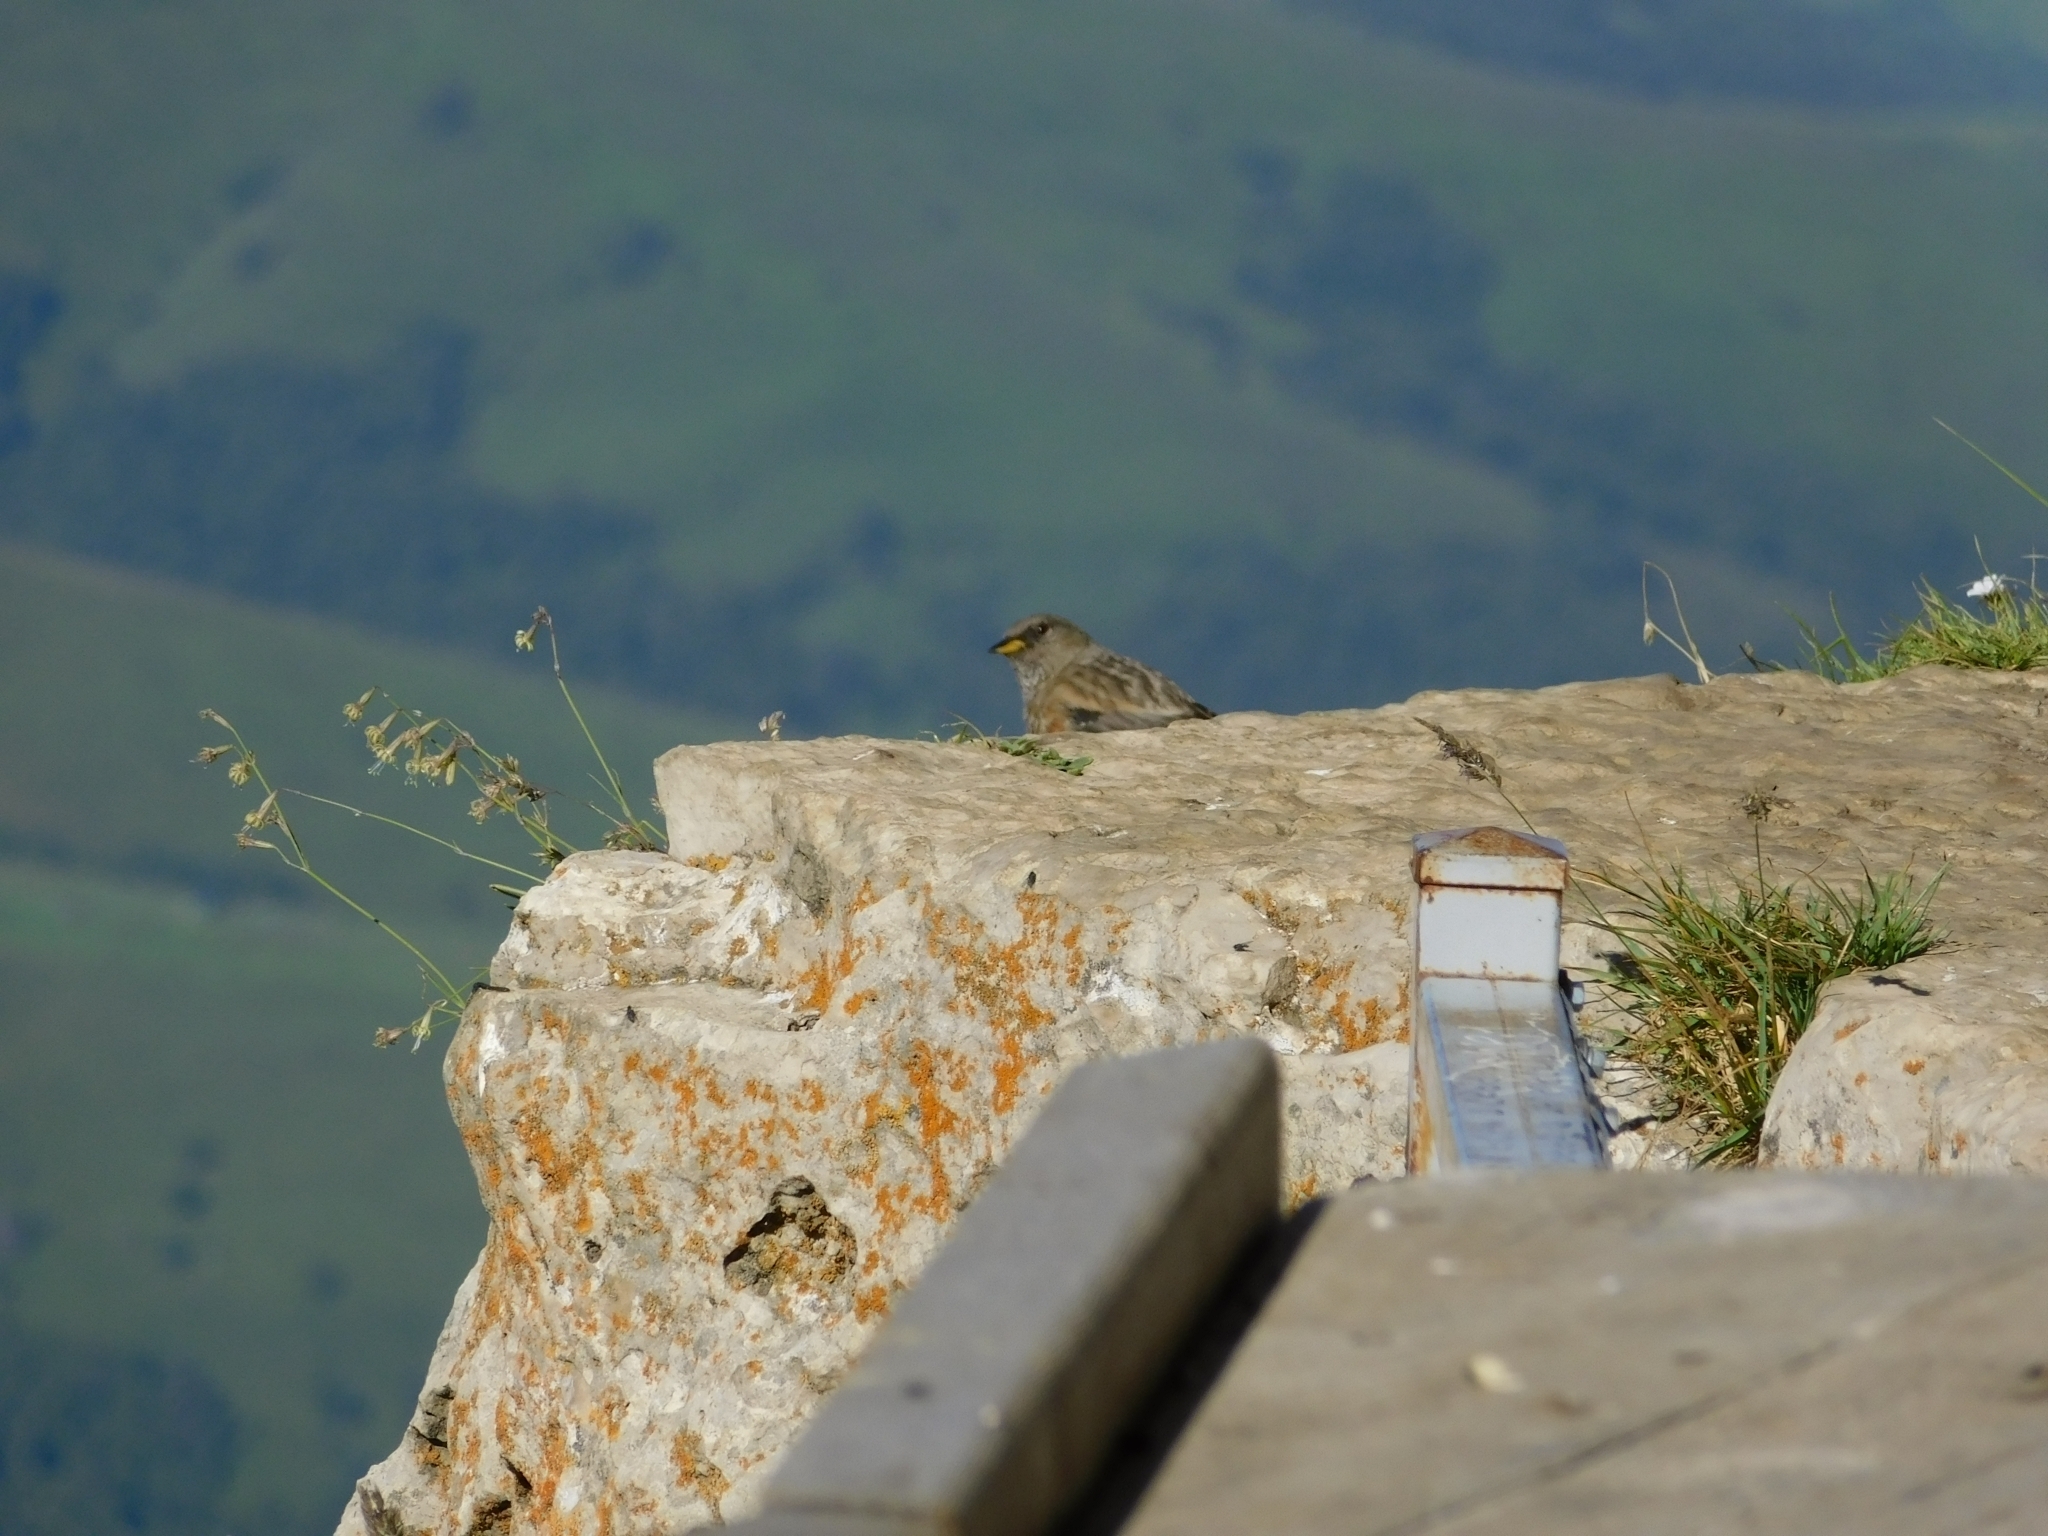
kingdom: Animalia
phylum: Chordata
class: Aves
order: Passeriformes
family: Prunellidae
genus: Prunella
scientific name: Prunella collaris
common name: Alpine accentor
